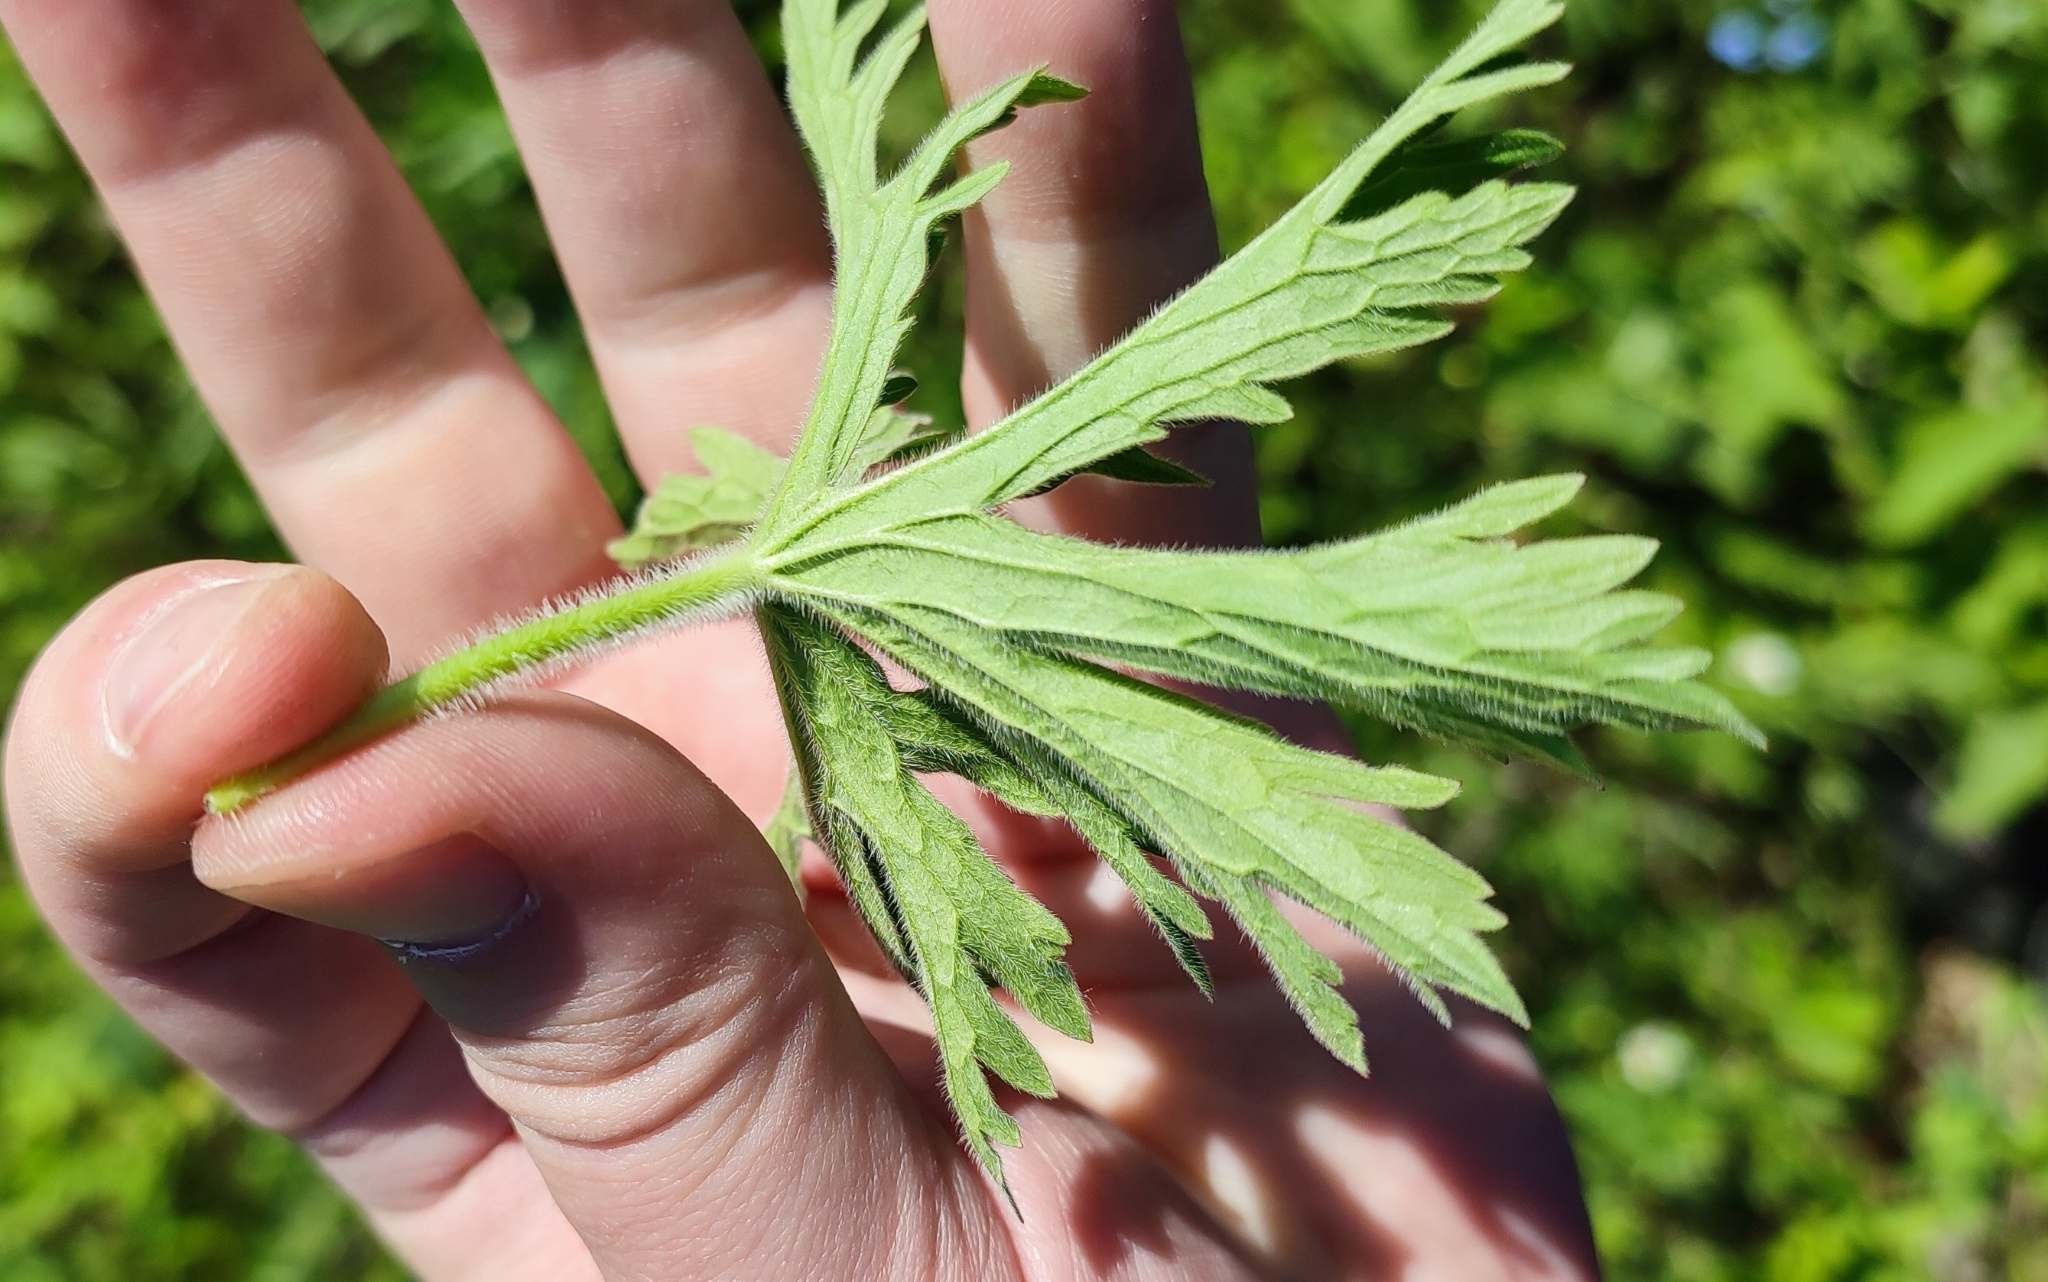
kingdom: Plantae
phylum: Tracheophyta
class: Magnoliopsida
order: Geraniales
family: Geraniaceae
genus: Geranium
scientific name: Geranium sylvaticum
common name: Wood crane's-bill
